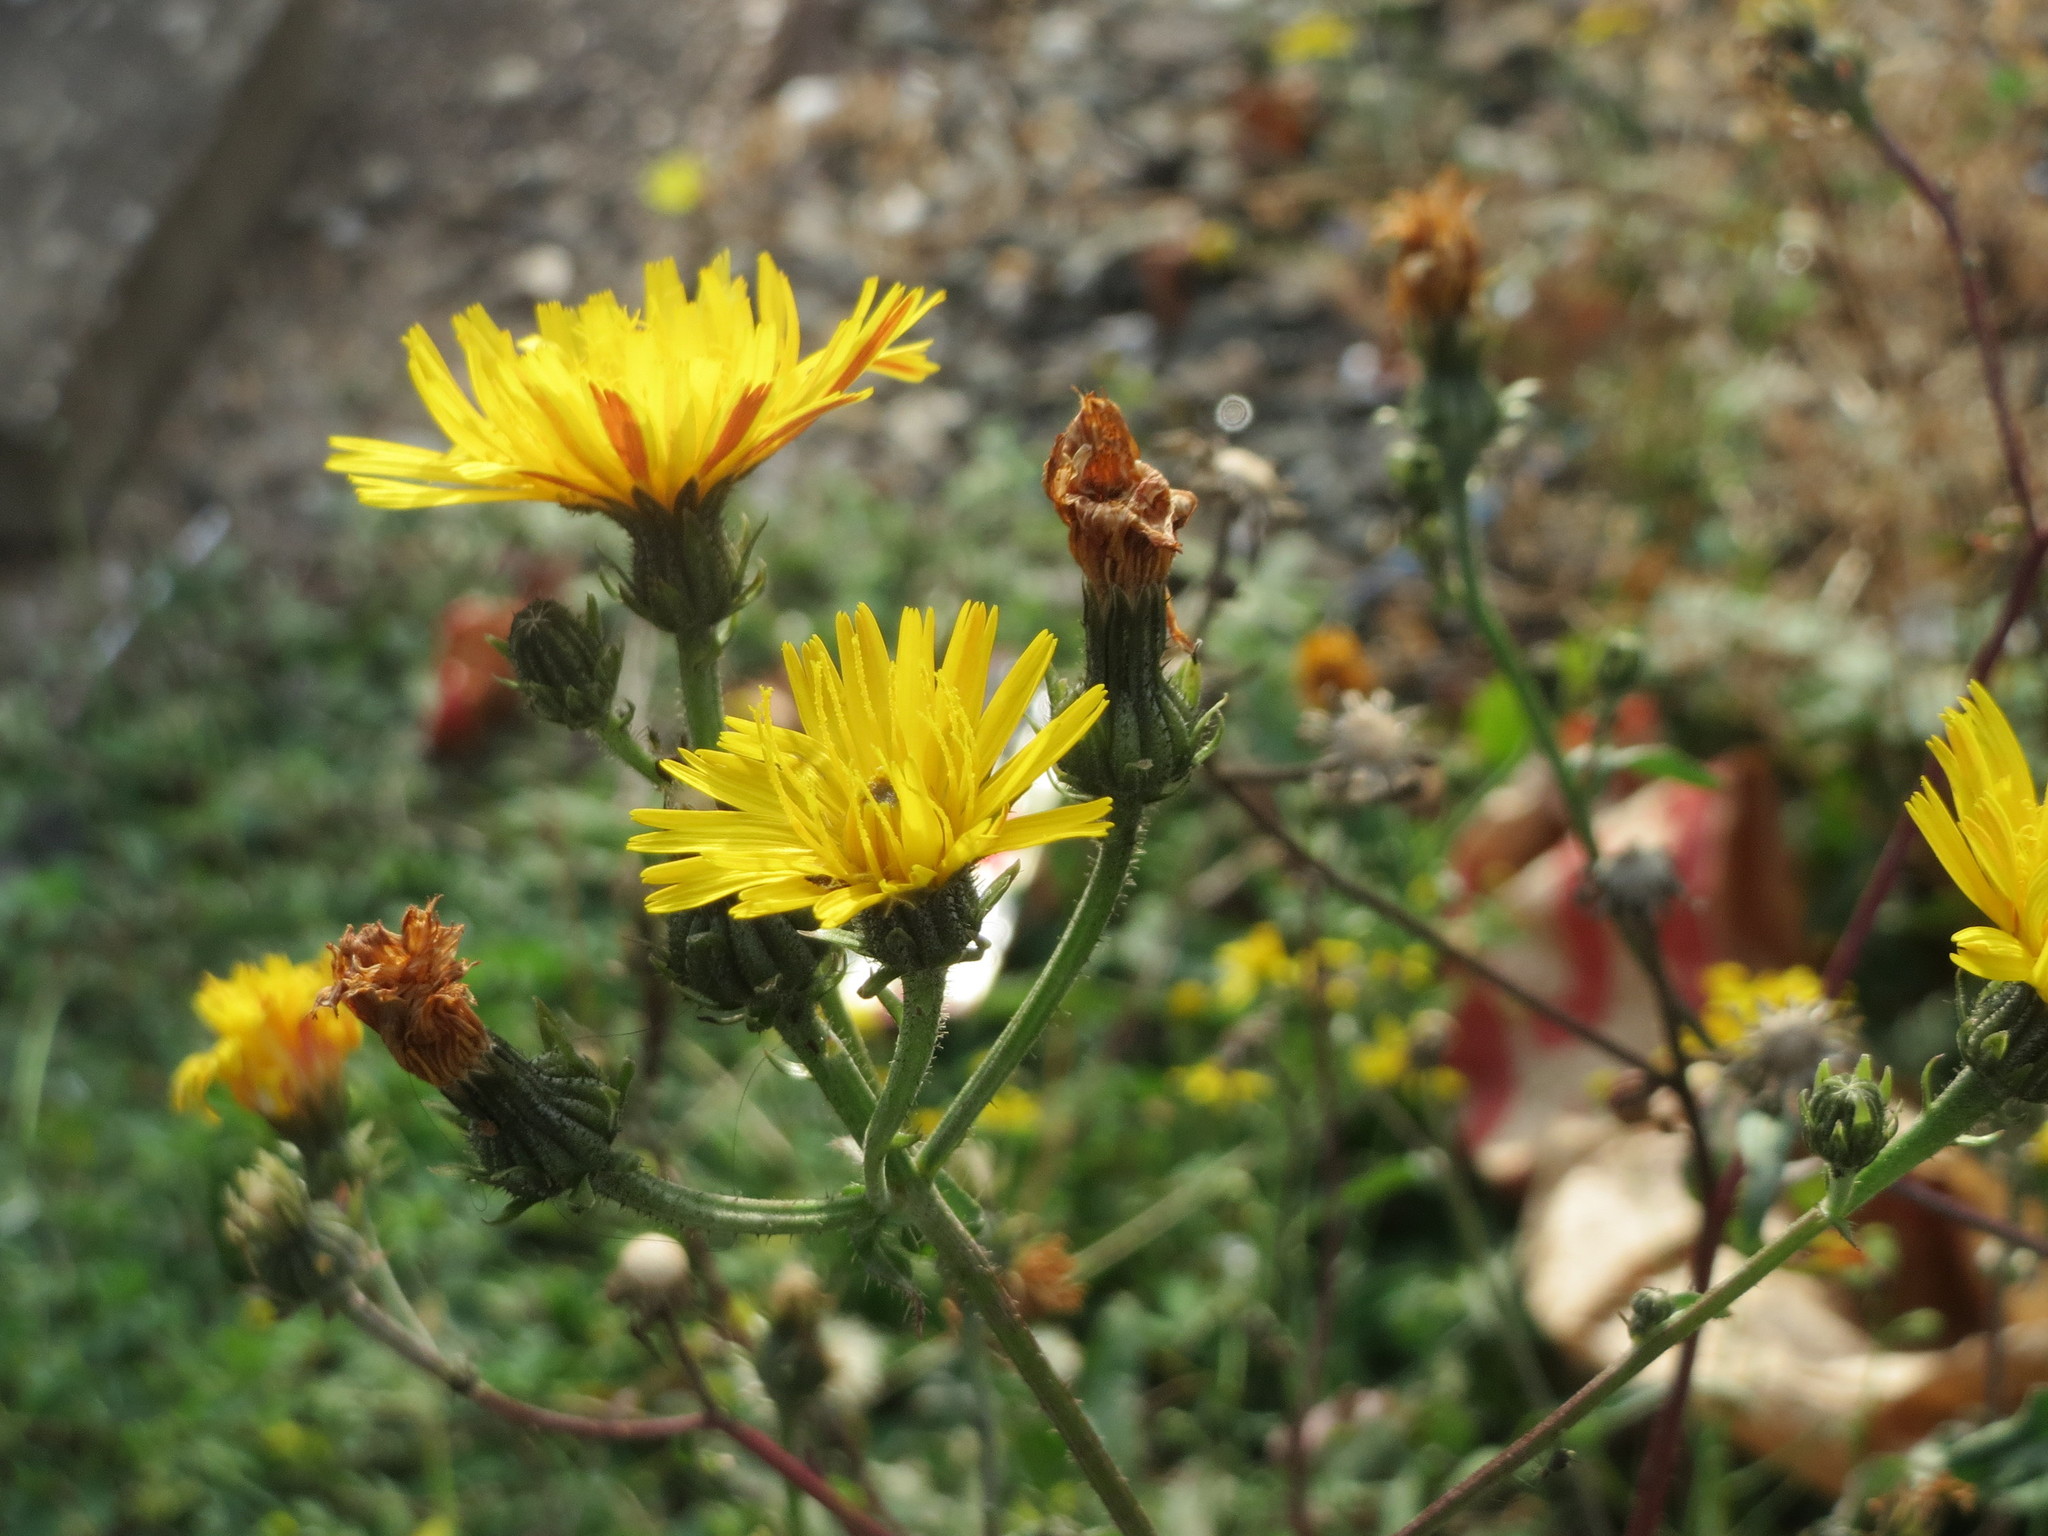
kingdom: Plantae
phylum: Tracheophyta
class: Magnoliopsida
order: Asterales
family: Asteraceae
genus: Picris
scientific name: Picris hieracioides
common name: Hawkweed oxtongue
